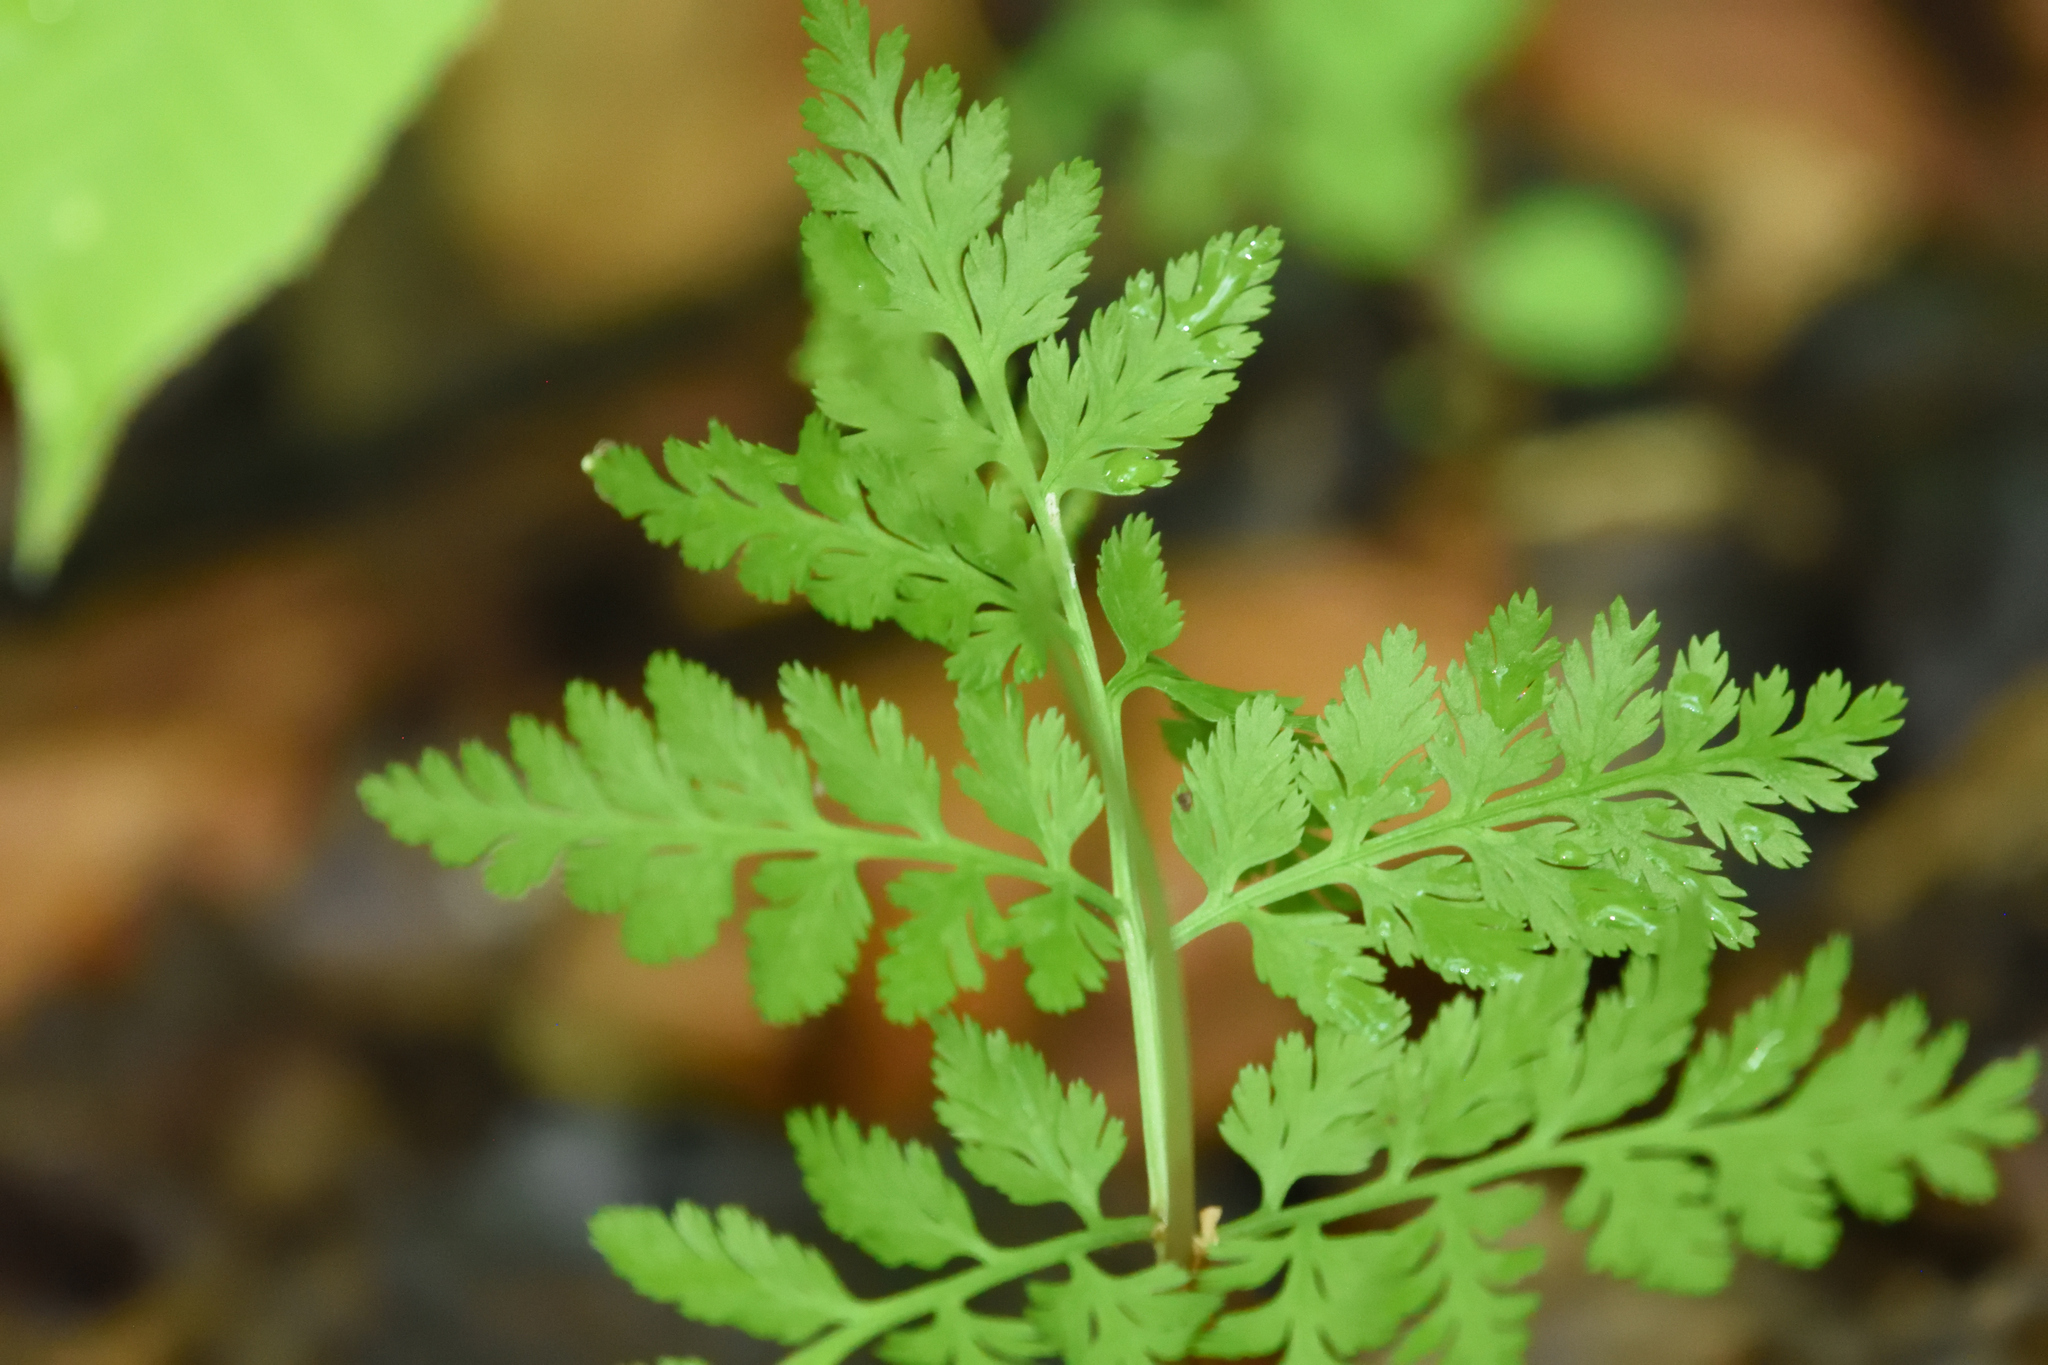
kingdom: Plantae
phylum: Tracheophyta
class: Polypodiopsida
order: Ophioglossales
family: Ophioglossaceae
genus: Botrypus
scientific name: Botrypus virginianus
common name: Common grapefern
